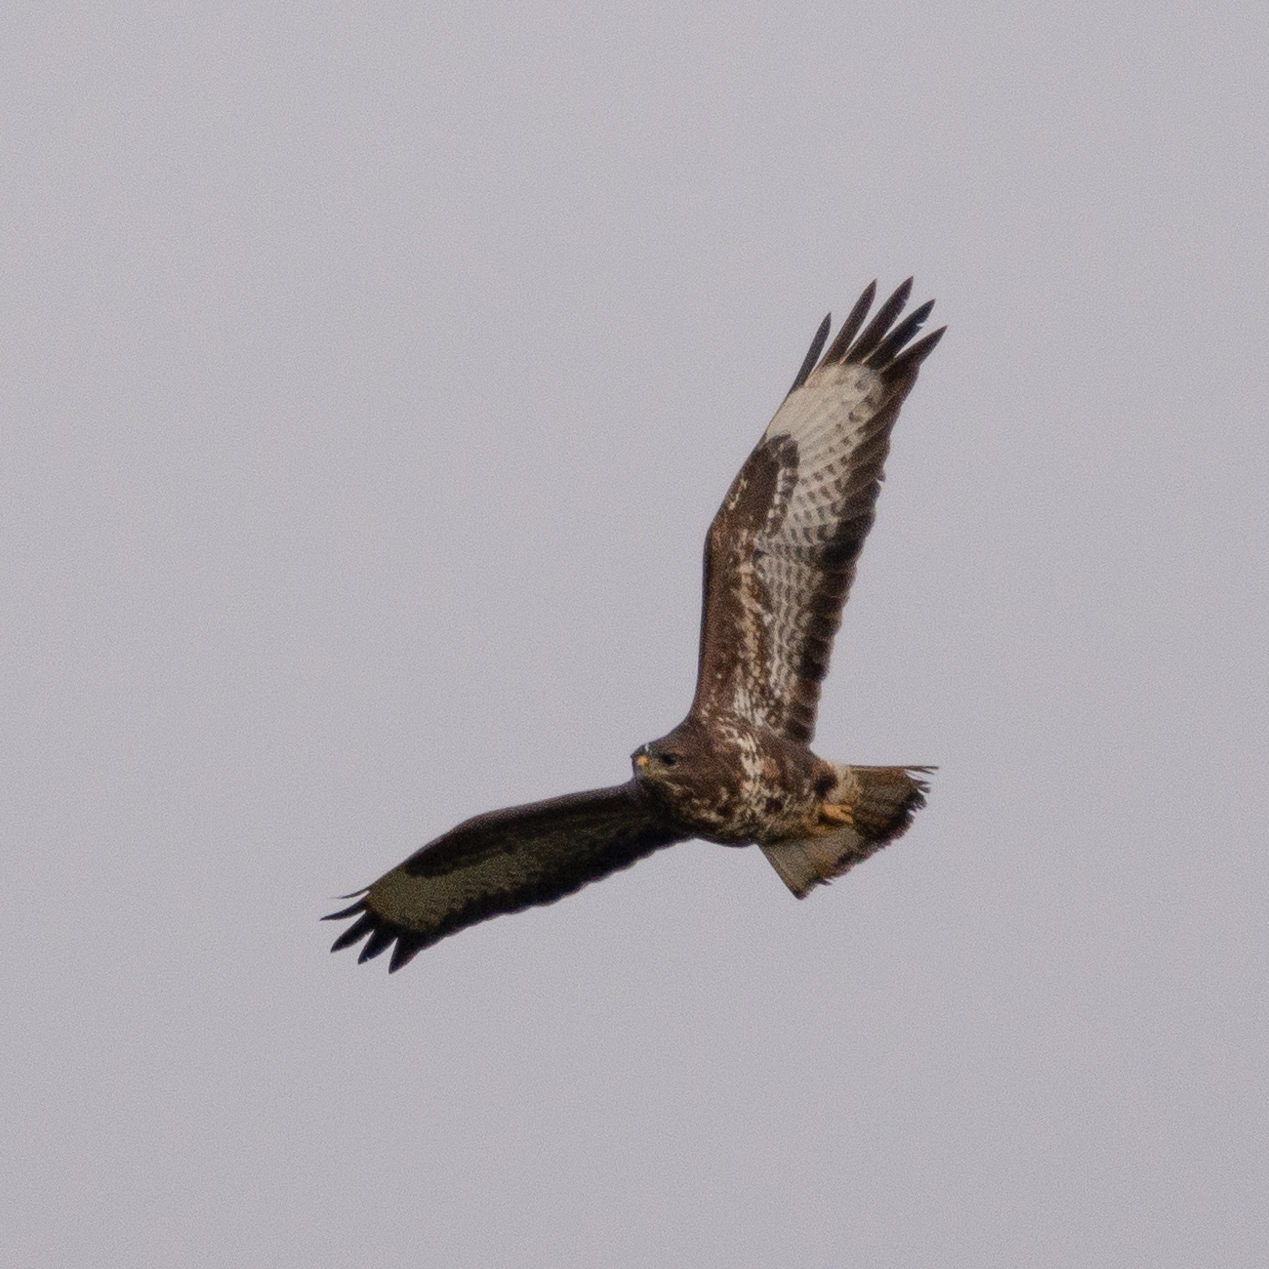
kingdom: Animalia
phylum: Chordata
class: Aves
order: Accipitriformes
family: Accipitridae
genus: Buteo
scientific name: Buteo buteo
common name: Common buzzard
